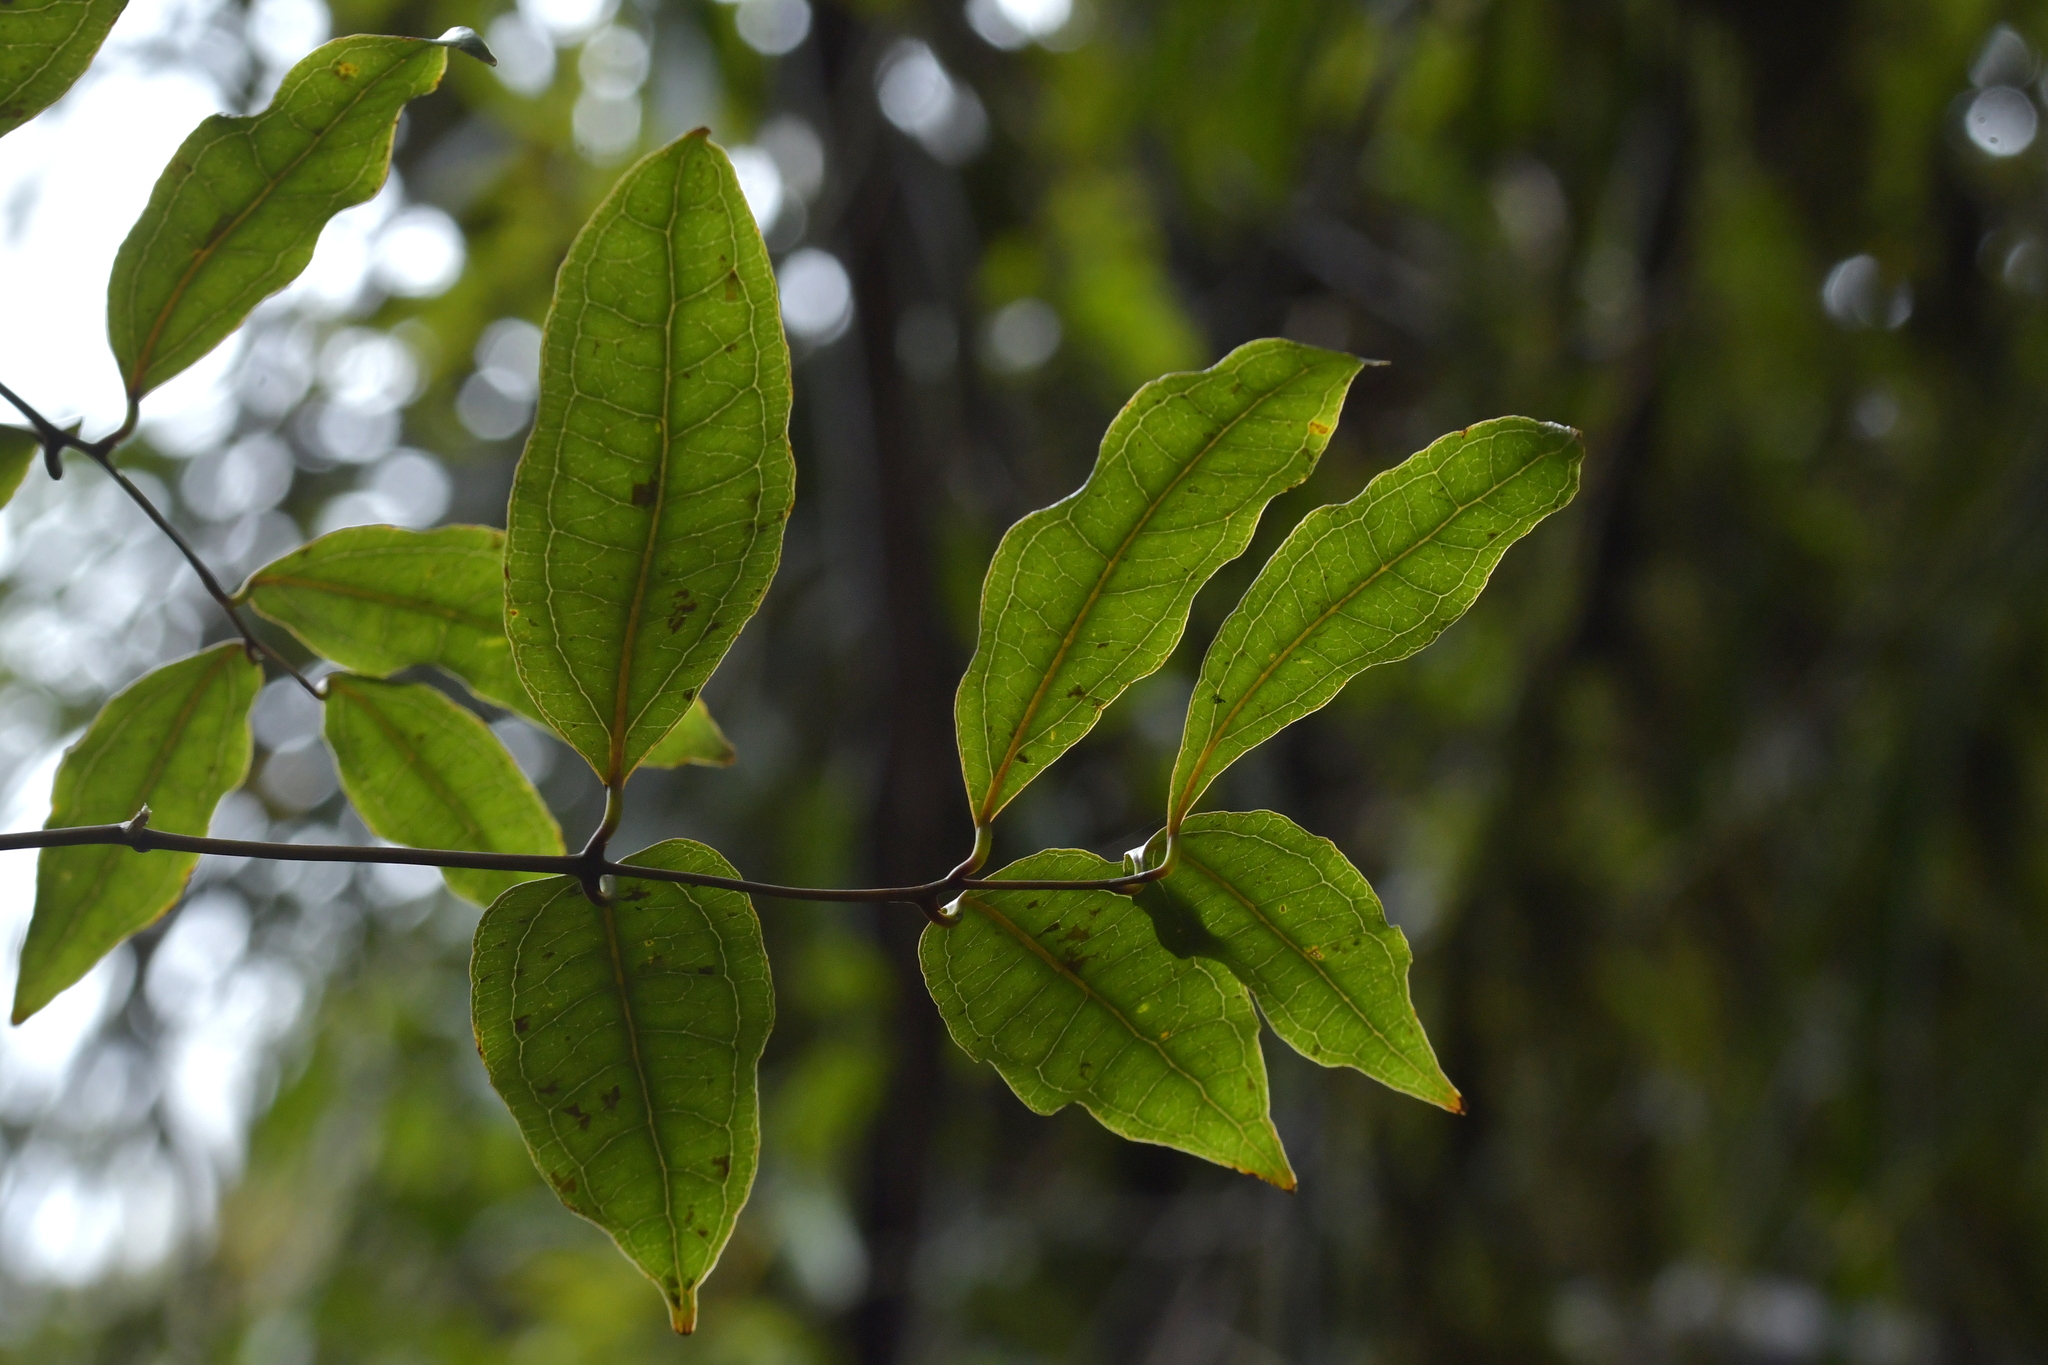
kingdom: Plantae
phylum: Tracheophyta
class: Liliopsida
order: Liliales
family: Ripogonaceae
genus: Ripogonum
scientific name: Ripogonum scandens
